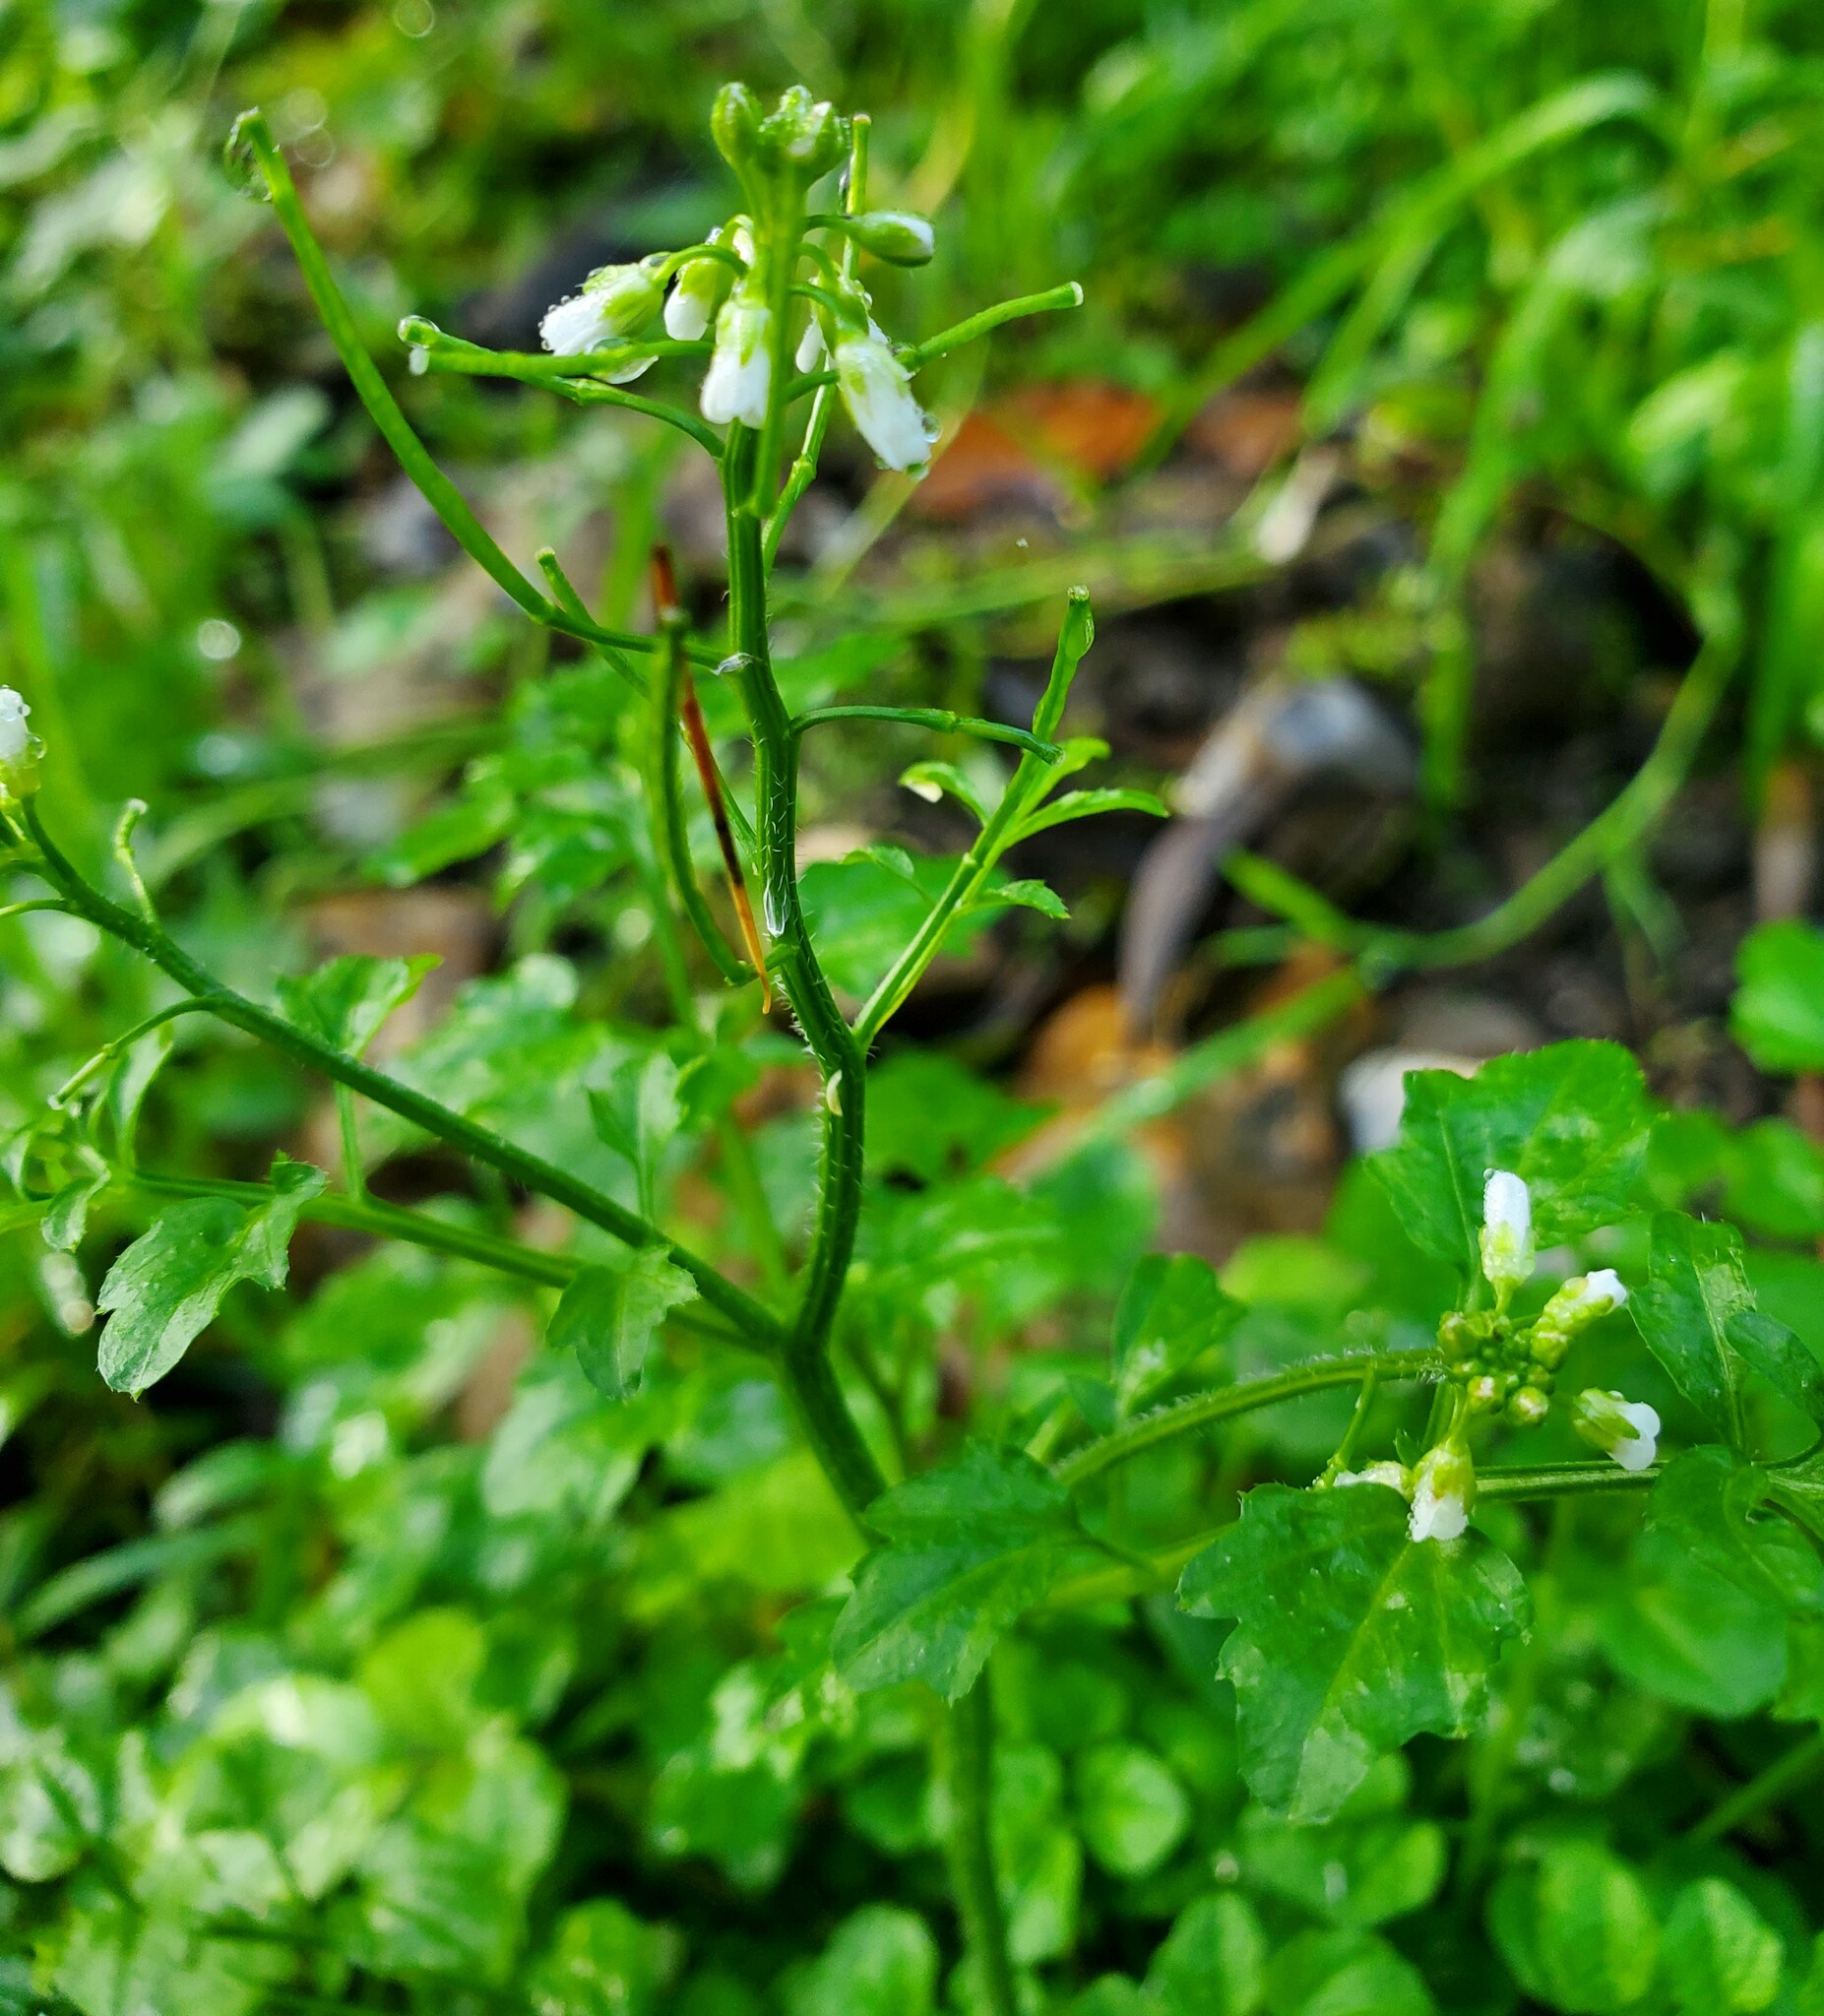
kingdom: Plantae
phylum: Tracheophyta
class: Magnoliopsida
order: Brassicales
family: Brassicaceae
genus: Cardamine
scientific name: Cardamine flexuosa
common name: Woodland bittercress
